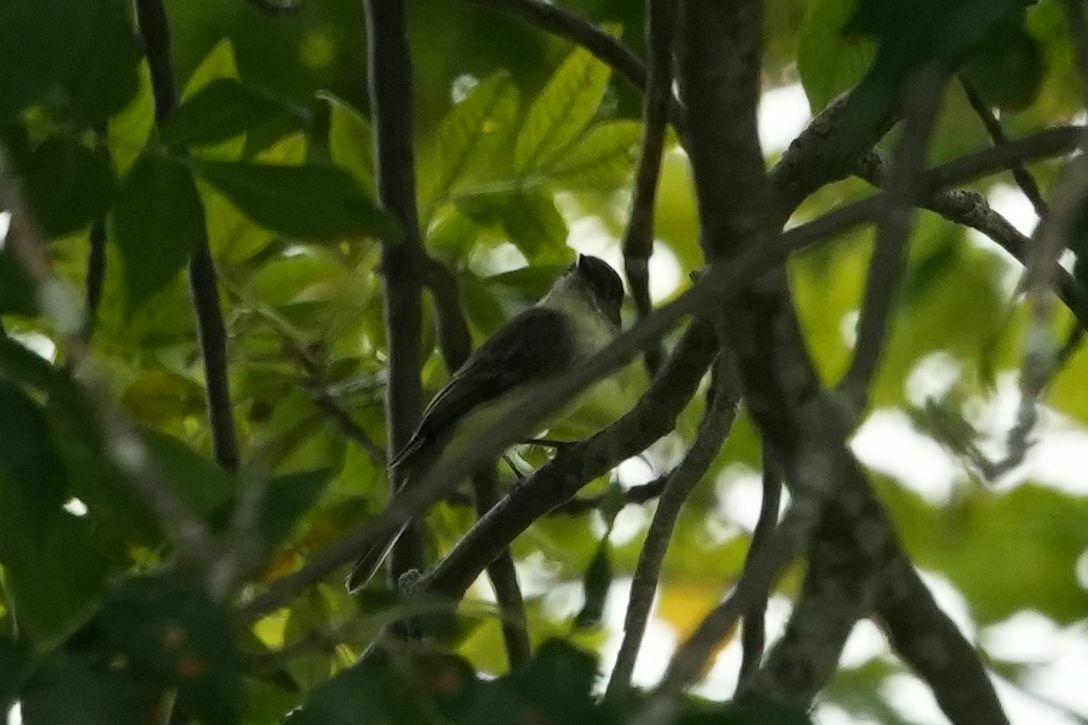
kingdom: Animalia
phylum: Chordata
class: Aves
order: Passeriformes
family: Tyrannidae
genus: Sayornis
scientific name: Sayornis phoebe
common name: Eastern phoebe
